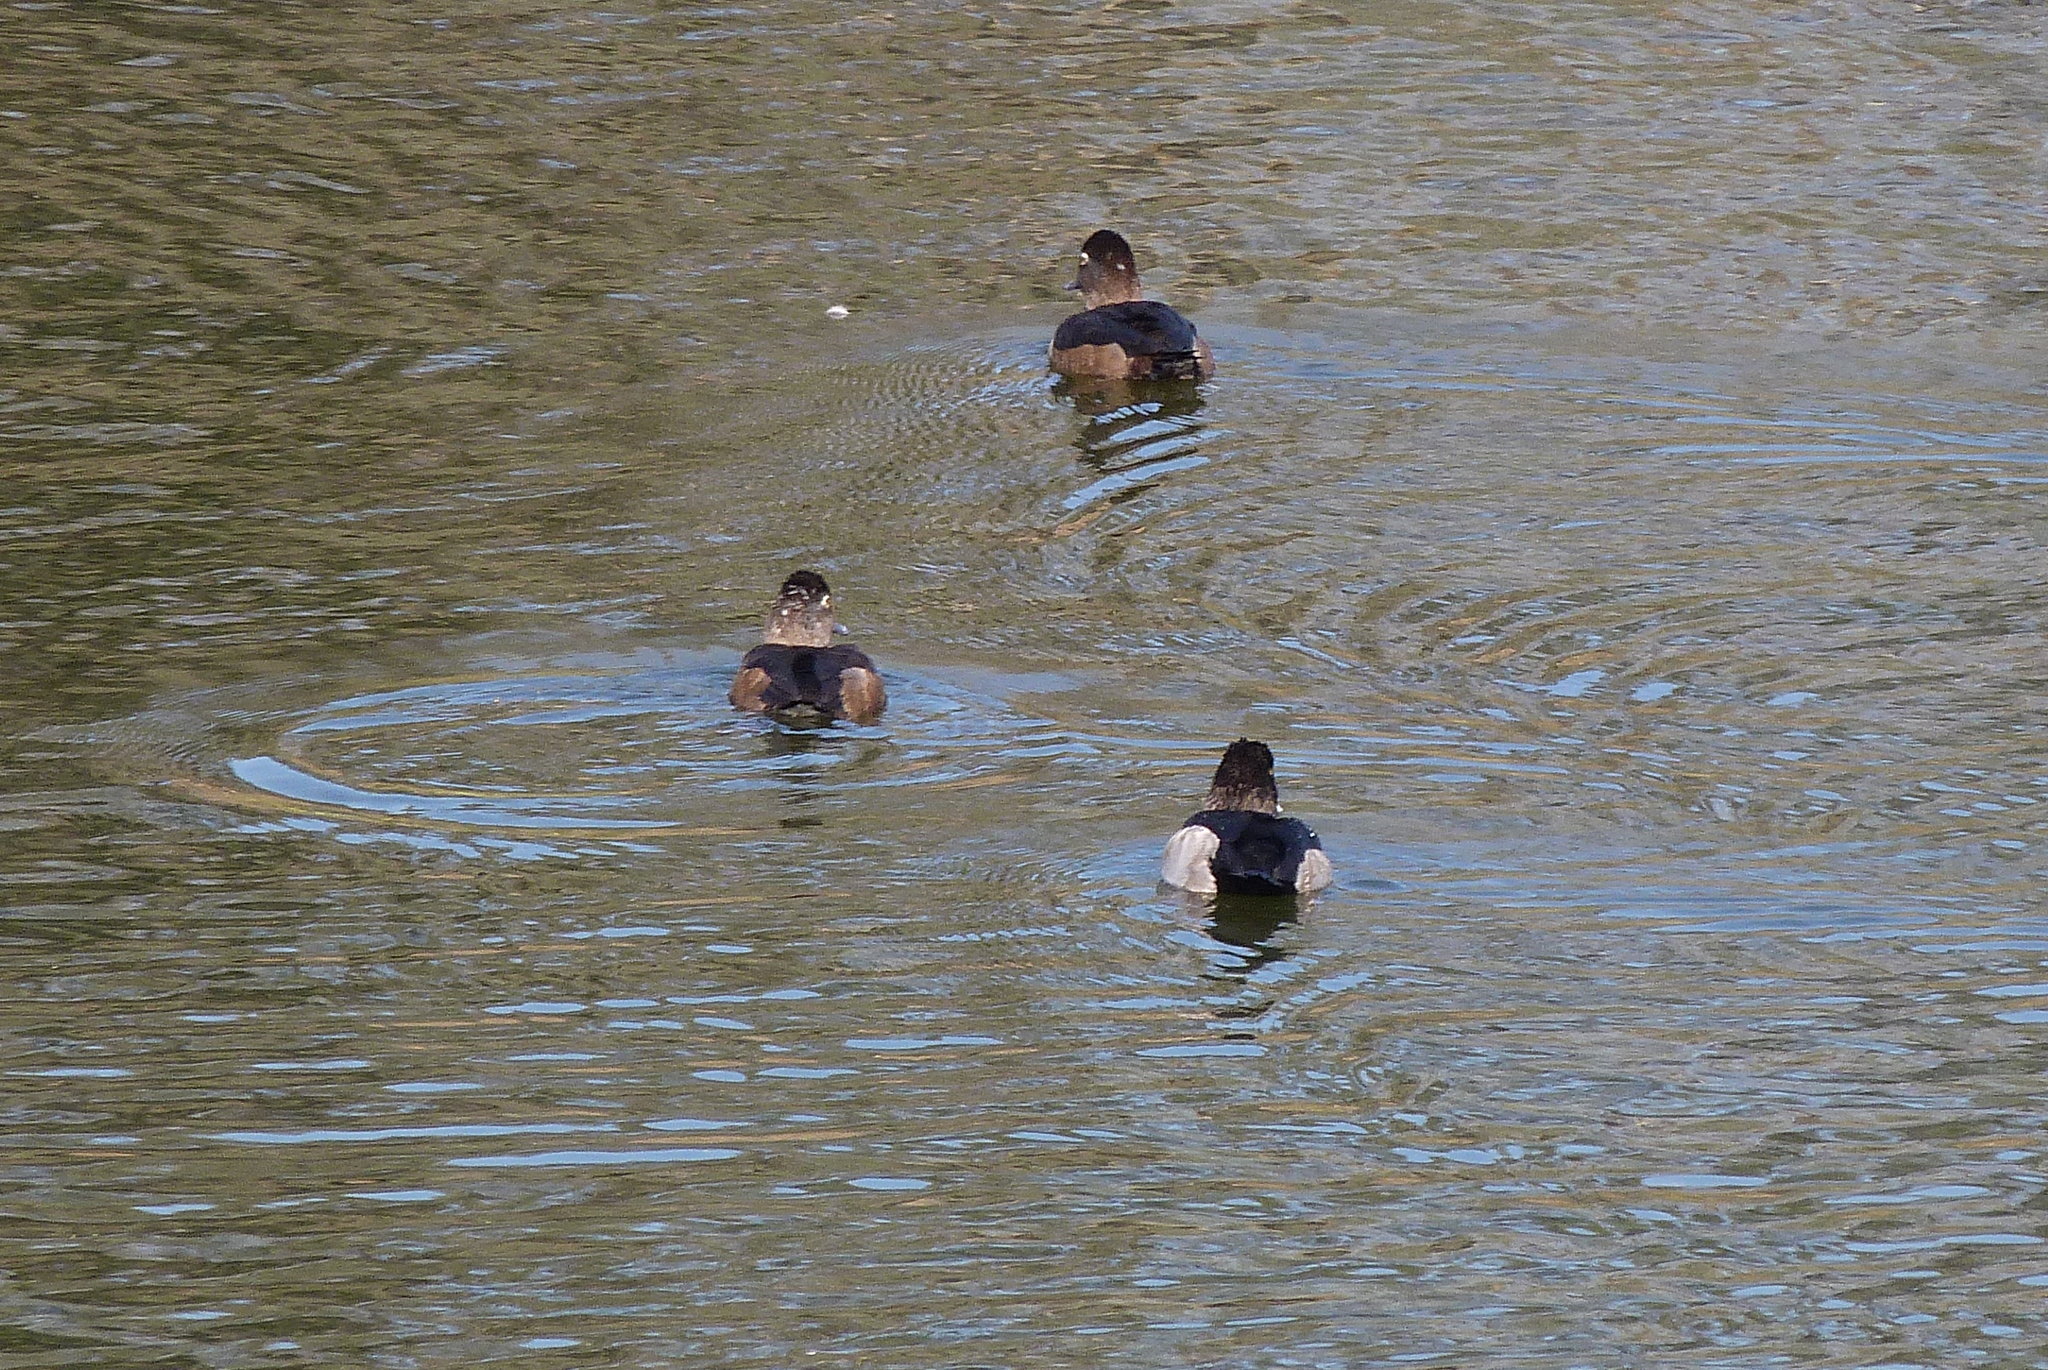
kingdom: Animalia
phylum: Chordata
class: Aves
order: Anseriformes
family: Anatidae
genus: Aythya
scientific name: Aythya collaris
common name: Ring-necked duck
